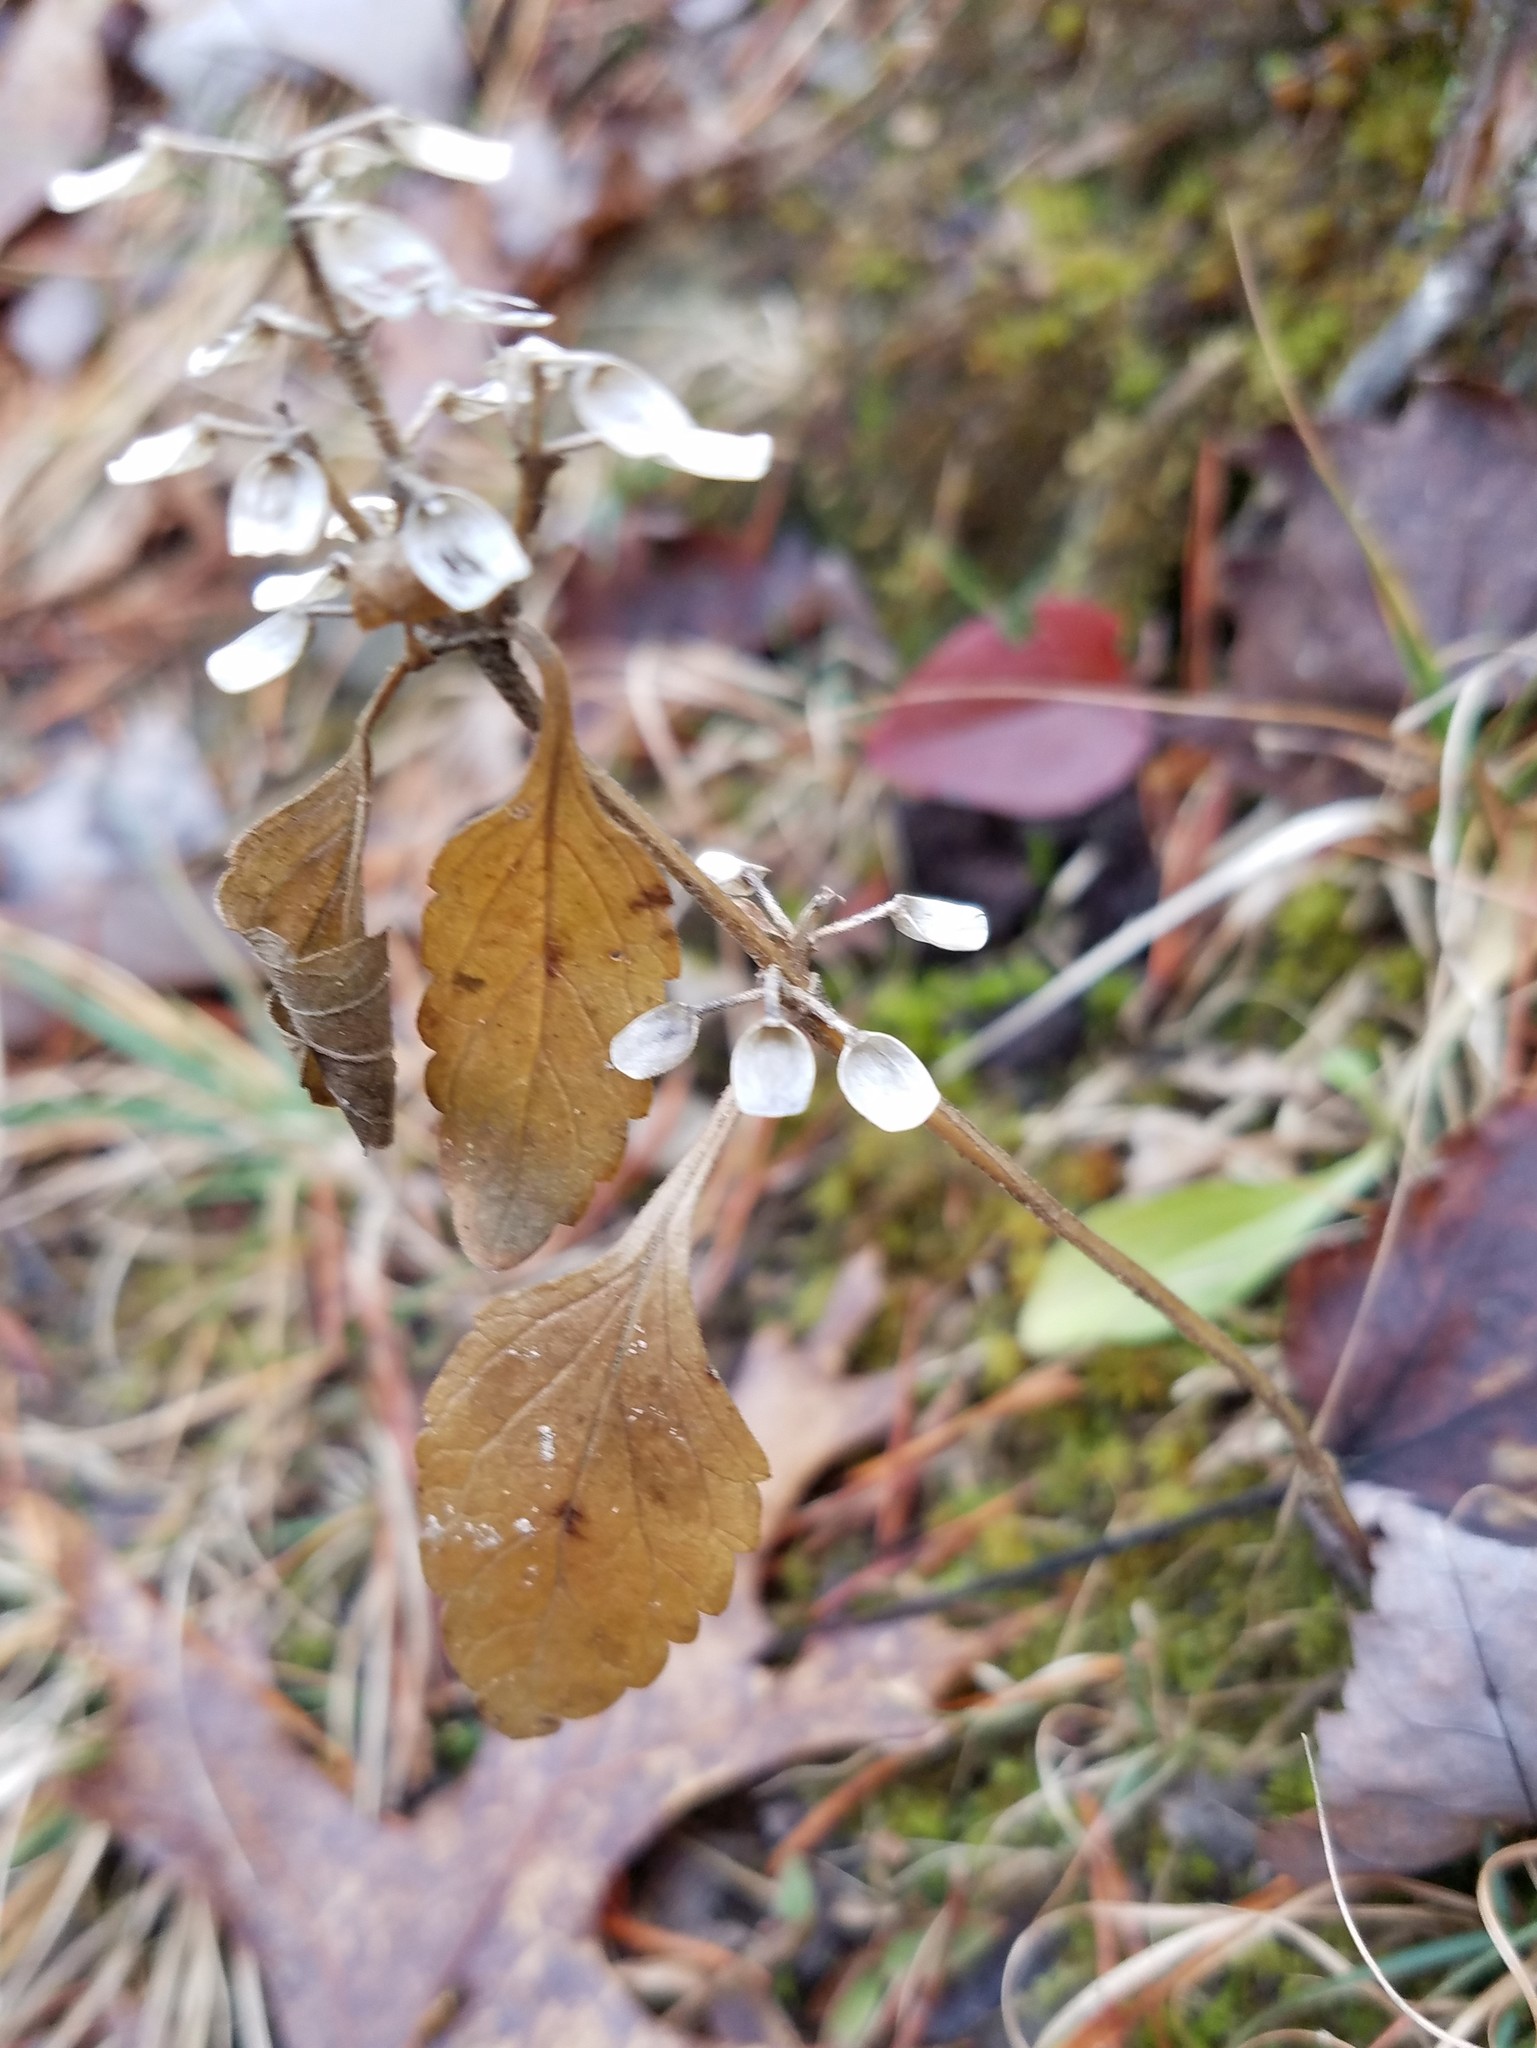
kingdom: Plantae
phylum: Tracheophyta
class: Magnoliopsida
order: Lamiales
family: Lamiaceae
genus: Scutellaria
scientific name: Scutellaria elliptica
